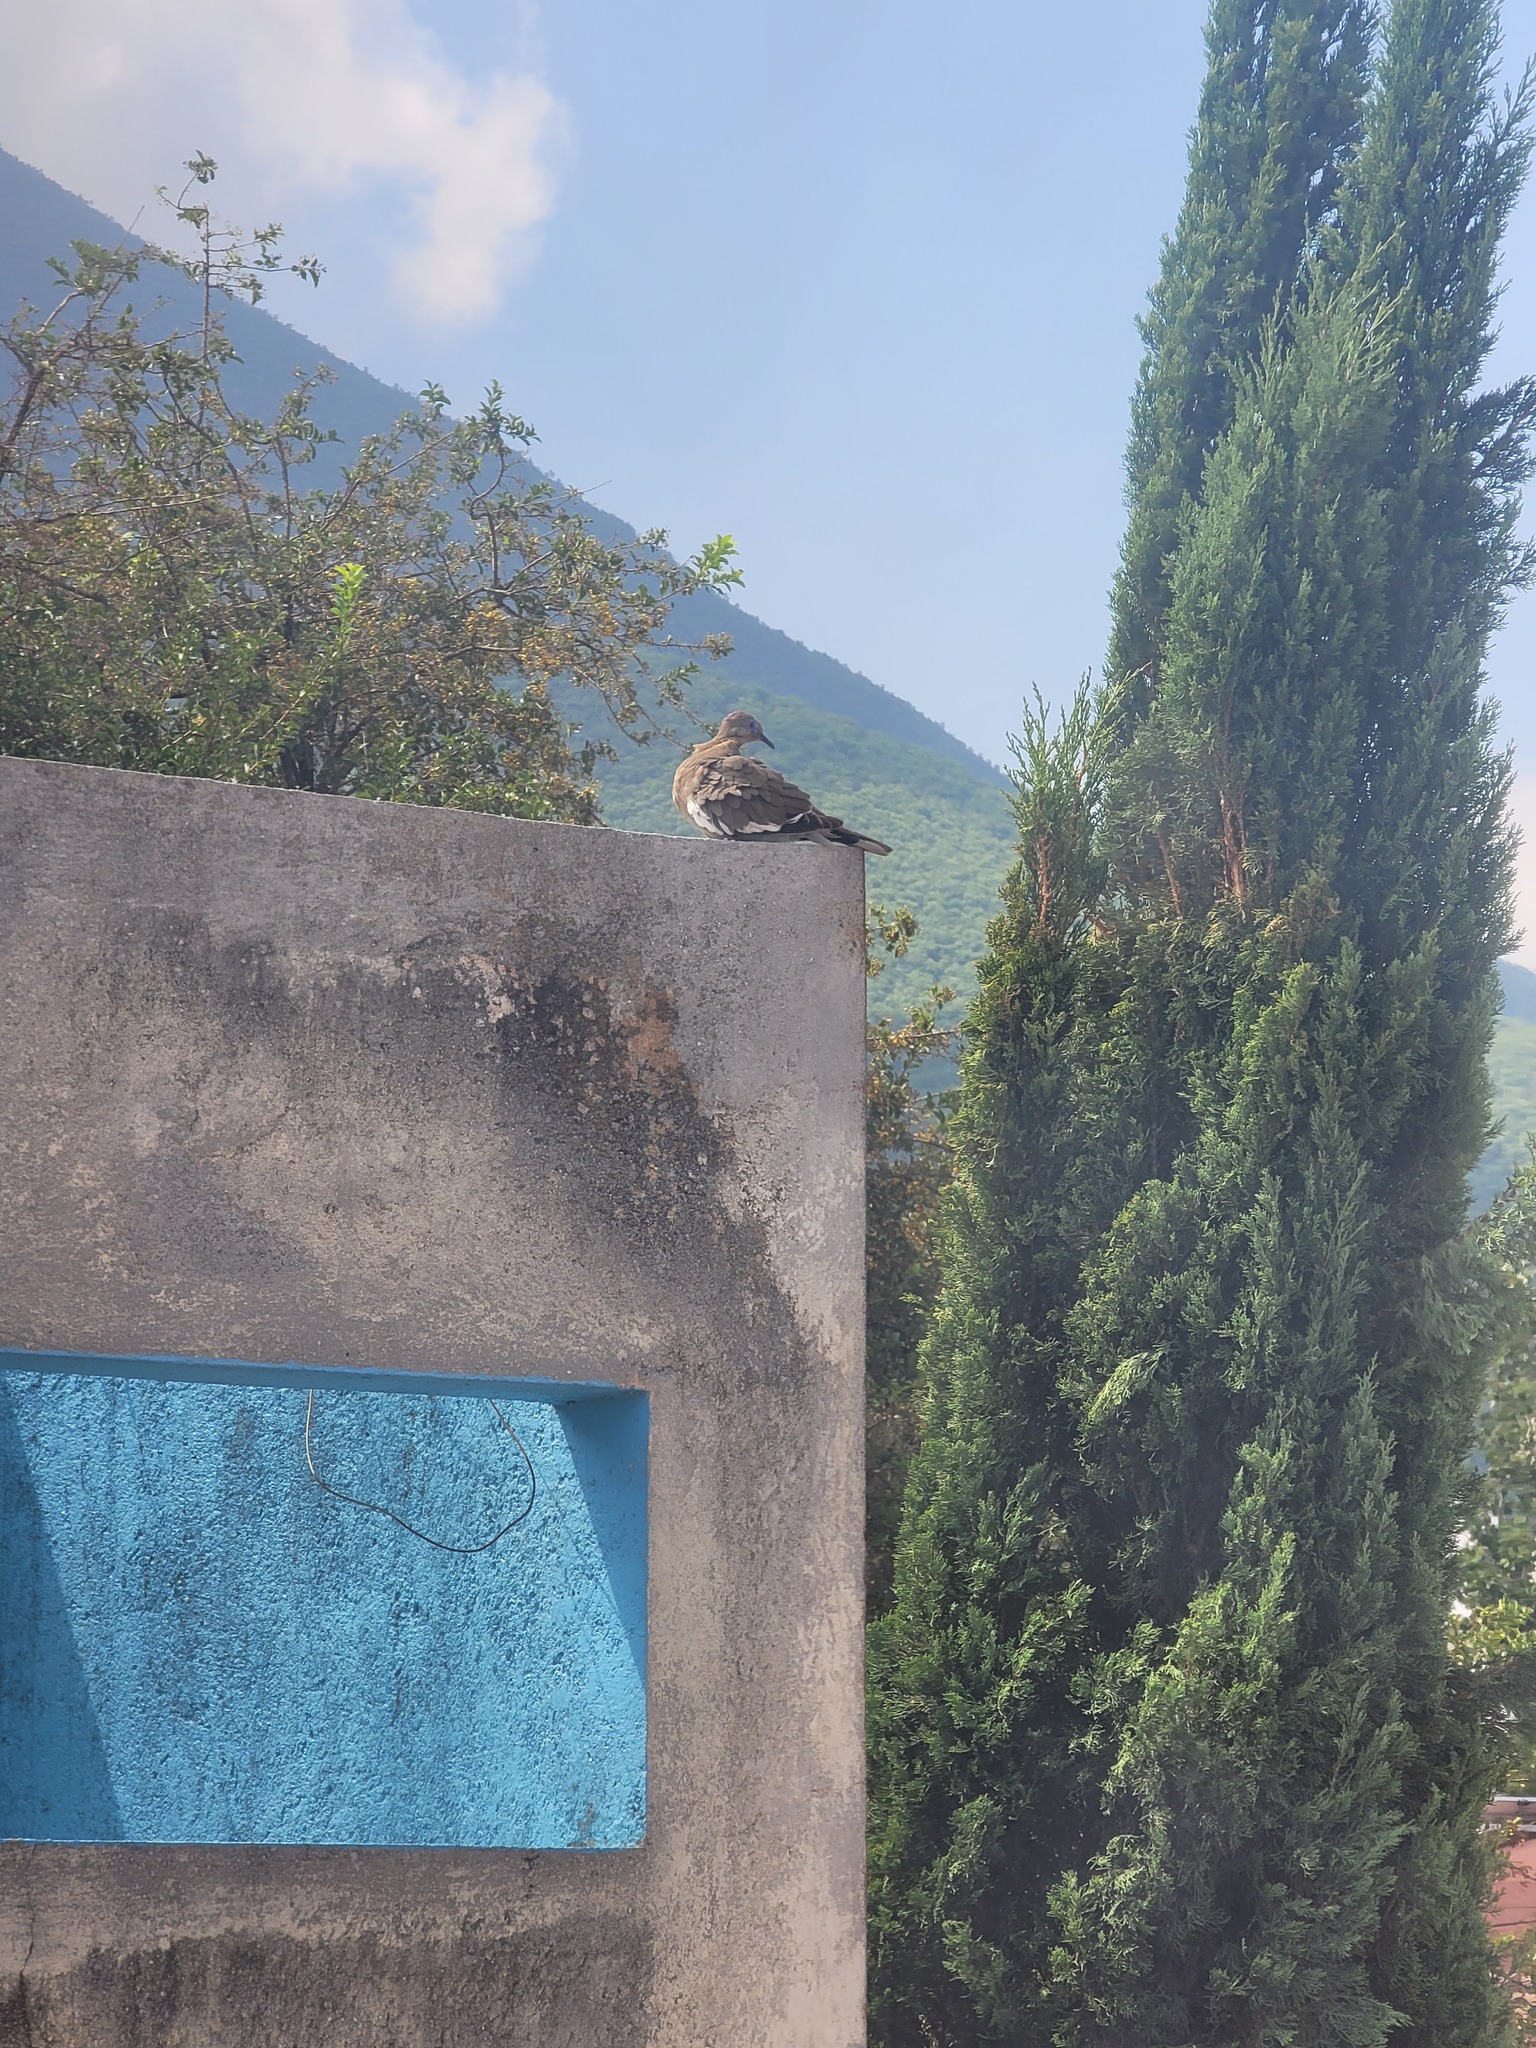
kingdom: Animalia
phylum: Chordata
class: Aves
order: Columbiformes
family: Columbidae
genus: Zenaida
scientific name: Zenaida asiatica
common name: White-winged dove
